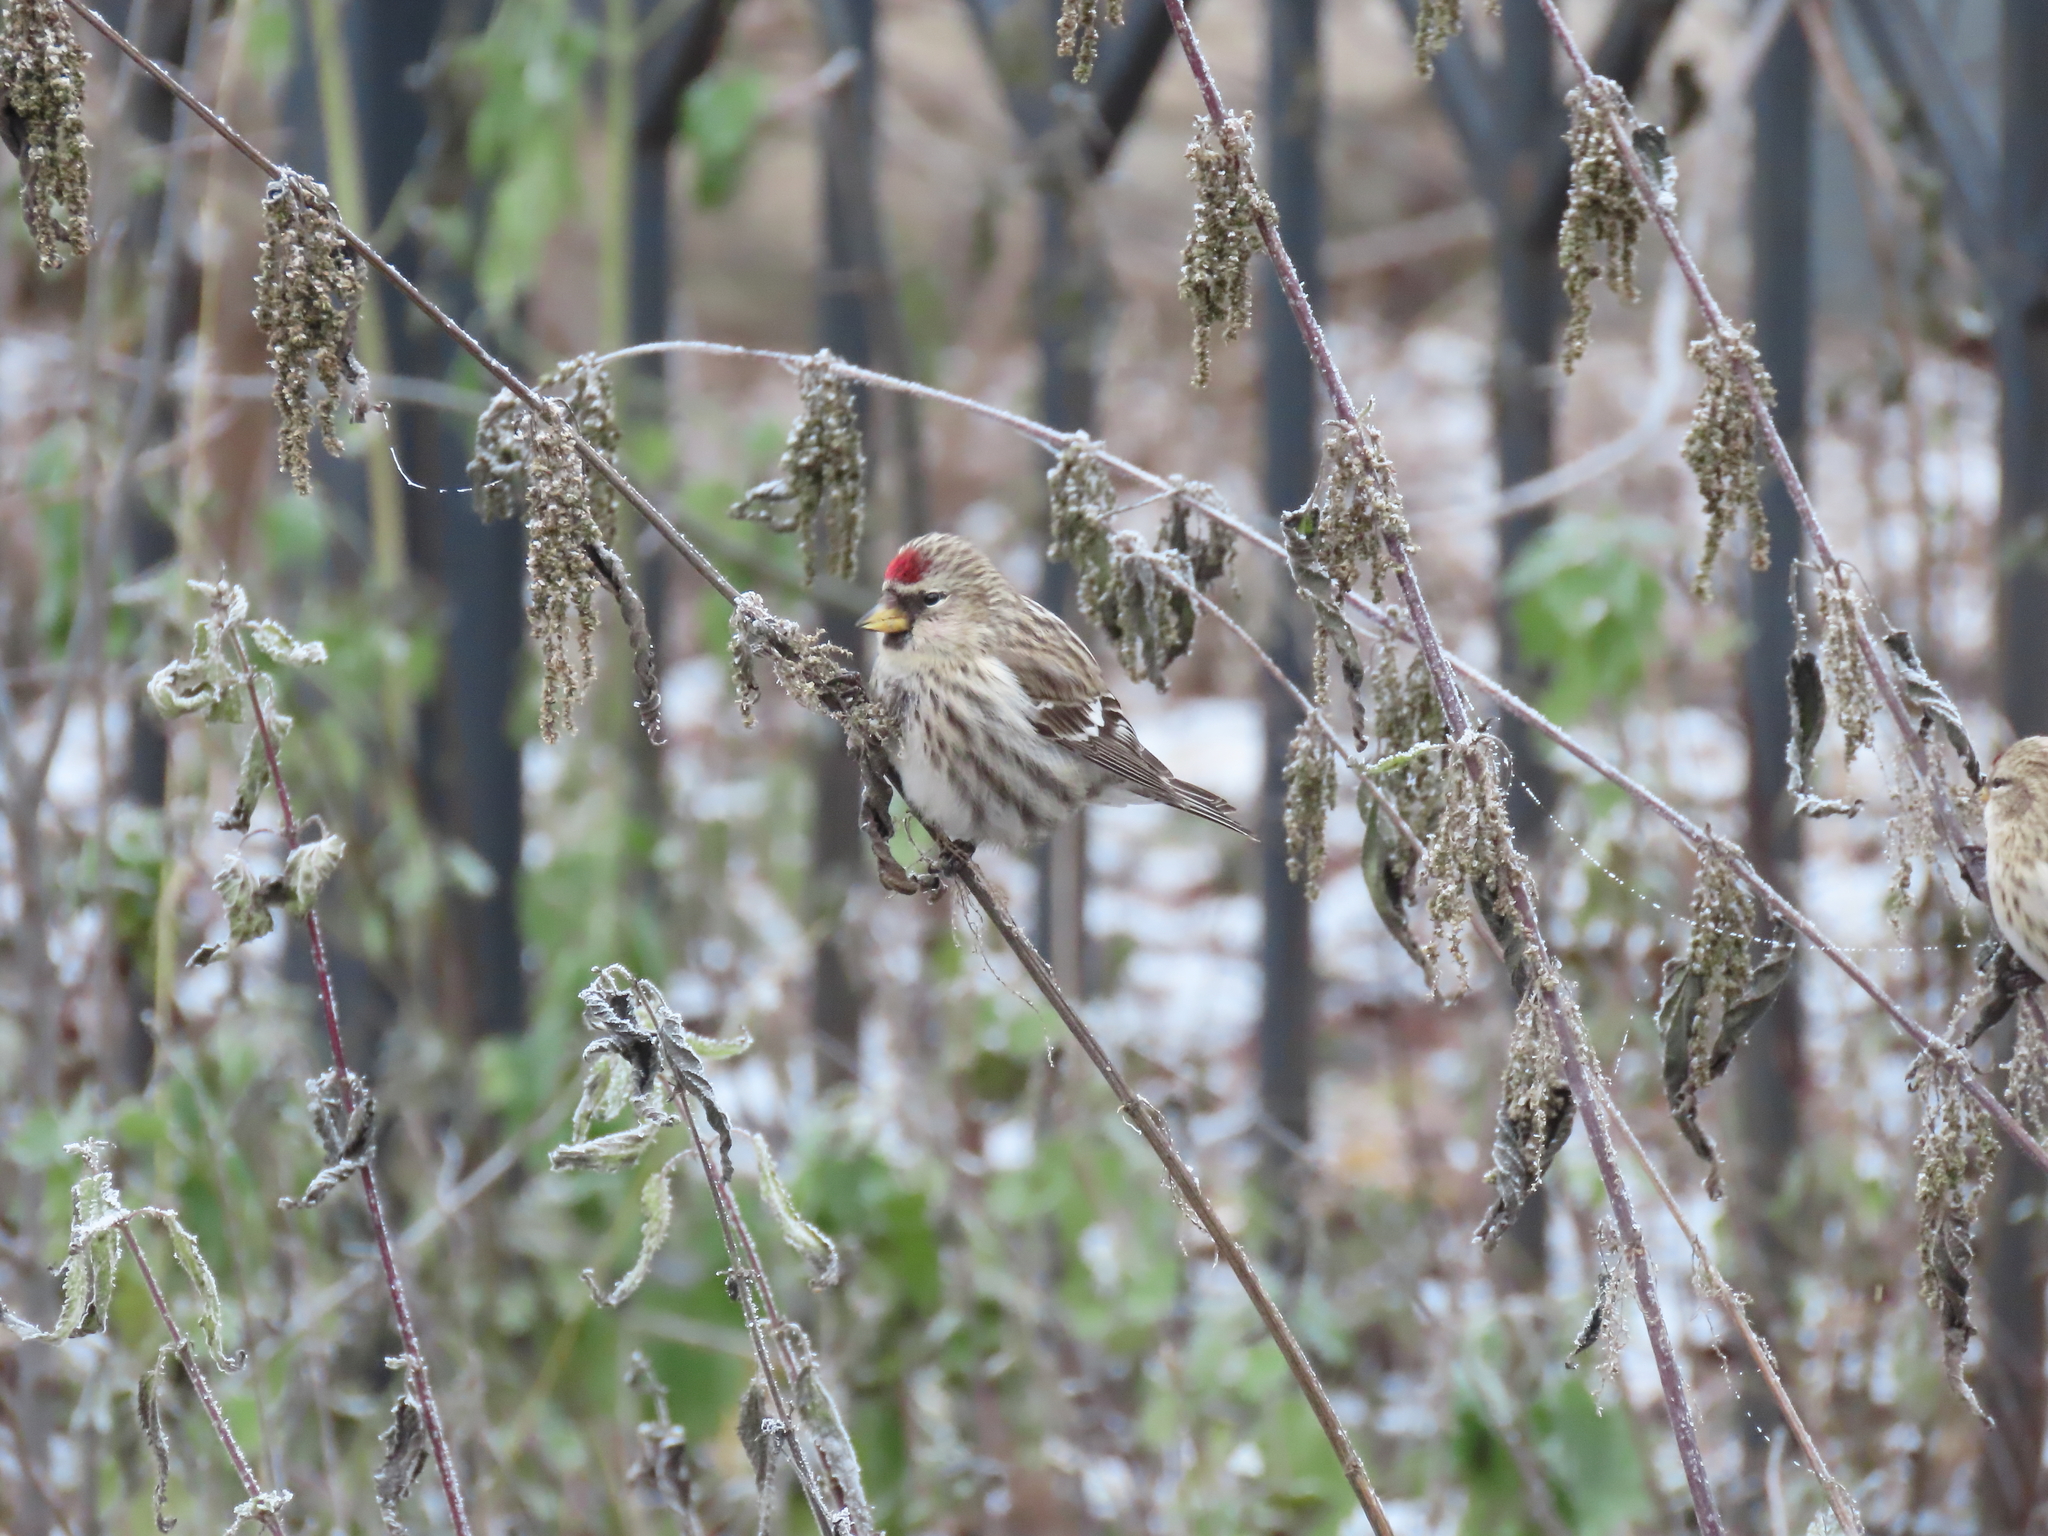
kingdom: Animalia
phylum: Chordata
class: Aves
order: Passeriformes
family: Fringillidae
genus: Acanthis
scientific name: Acanthis flammea
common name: Common redpoll
